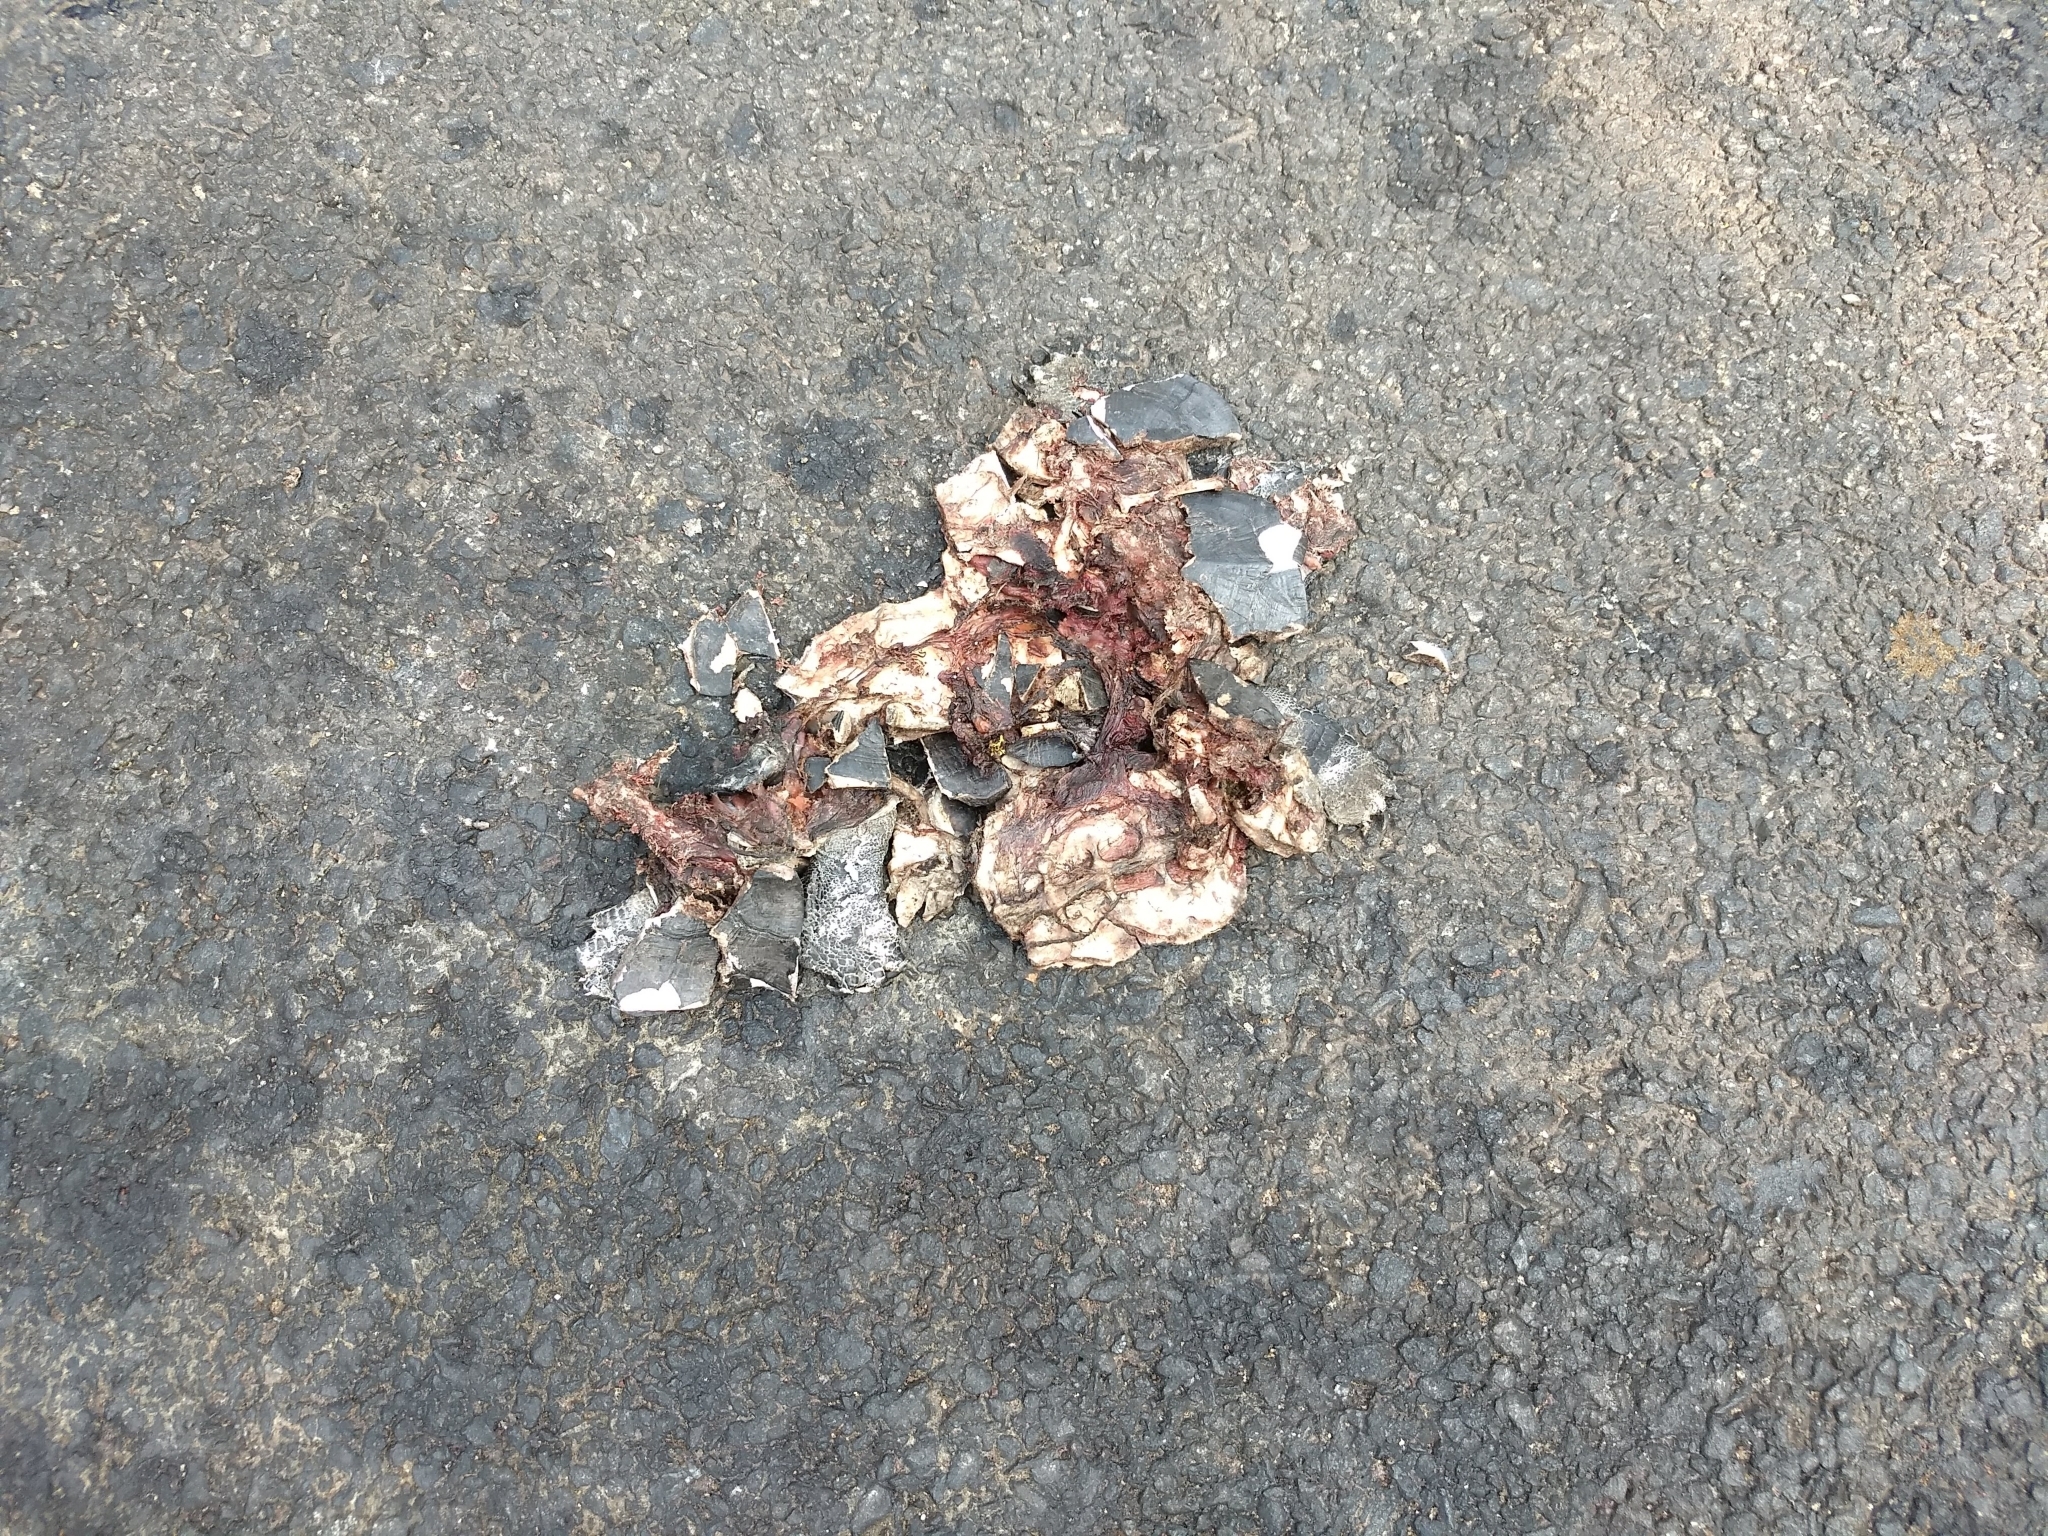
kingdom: Animalia
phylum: Chordata
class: Testudines
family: Geoemydidae
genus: Melanochelys
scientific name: Melanochelys trijuga
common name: Indian black turtle
